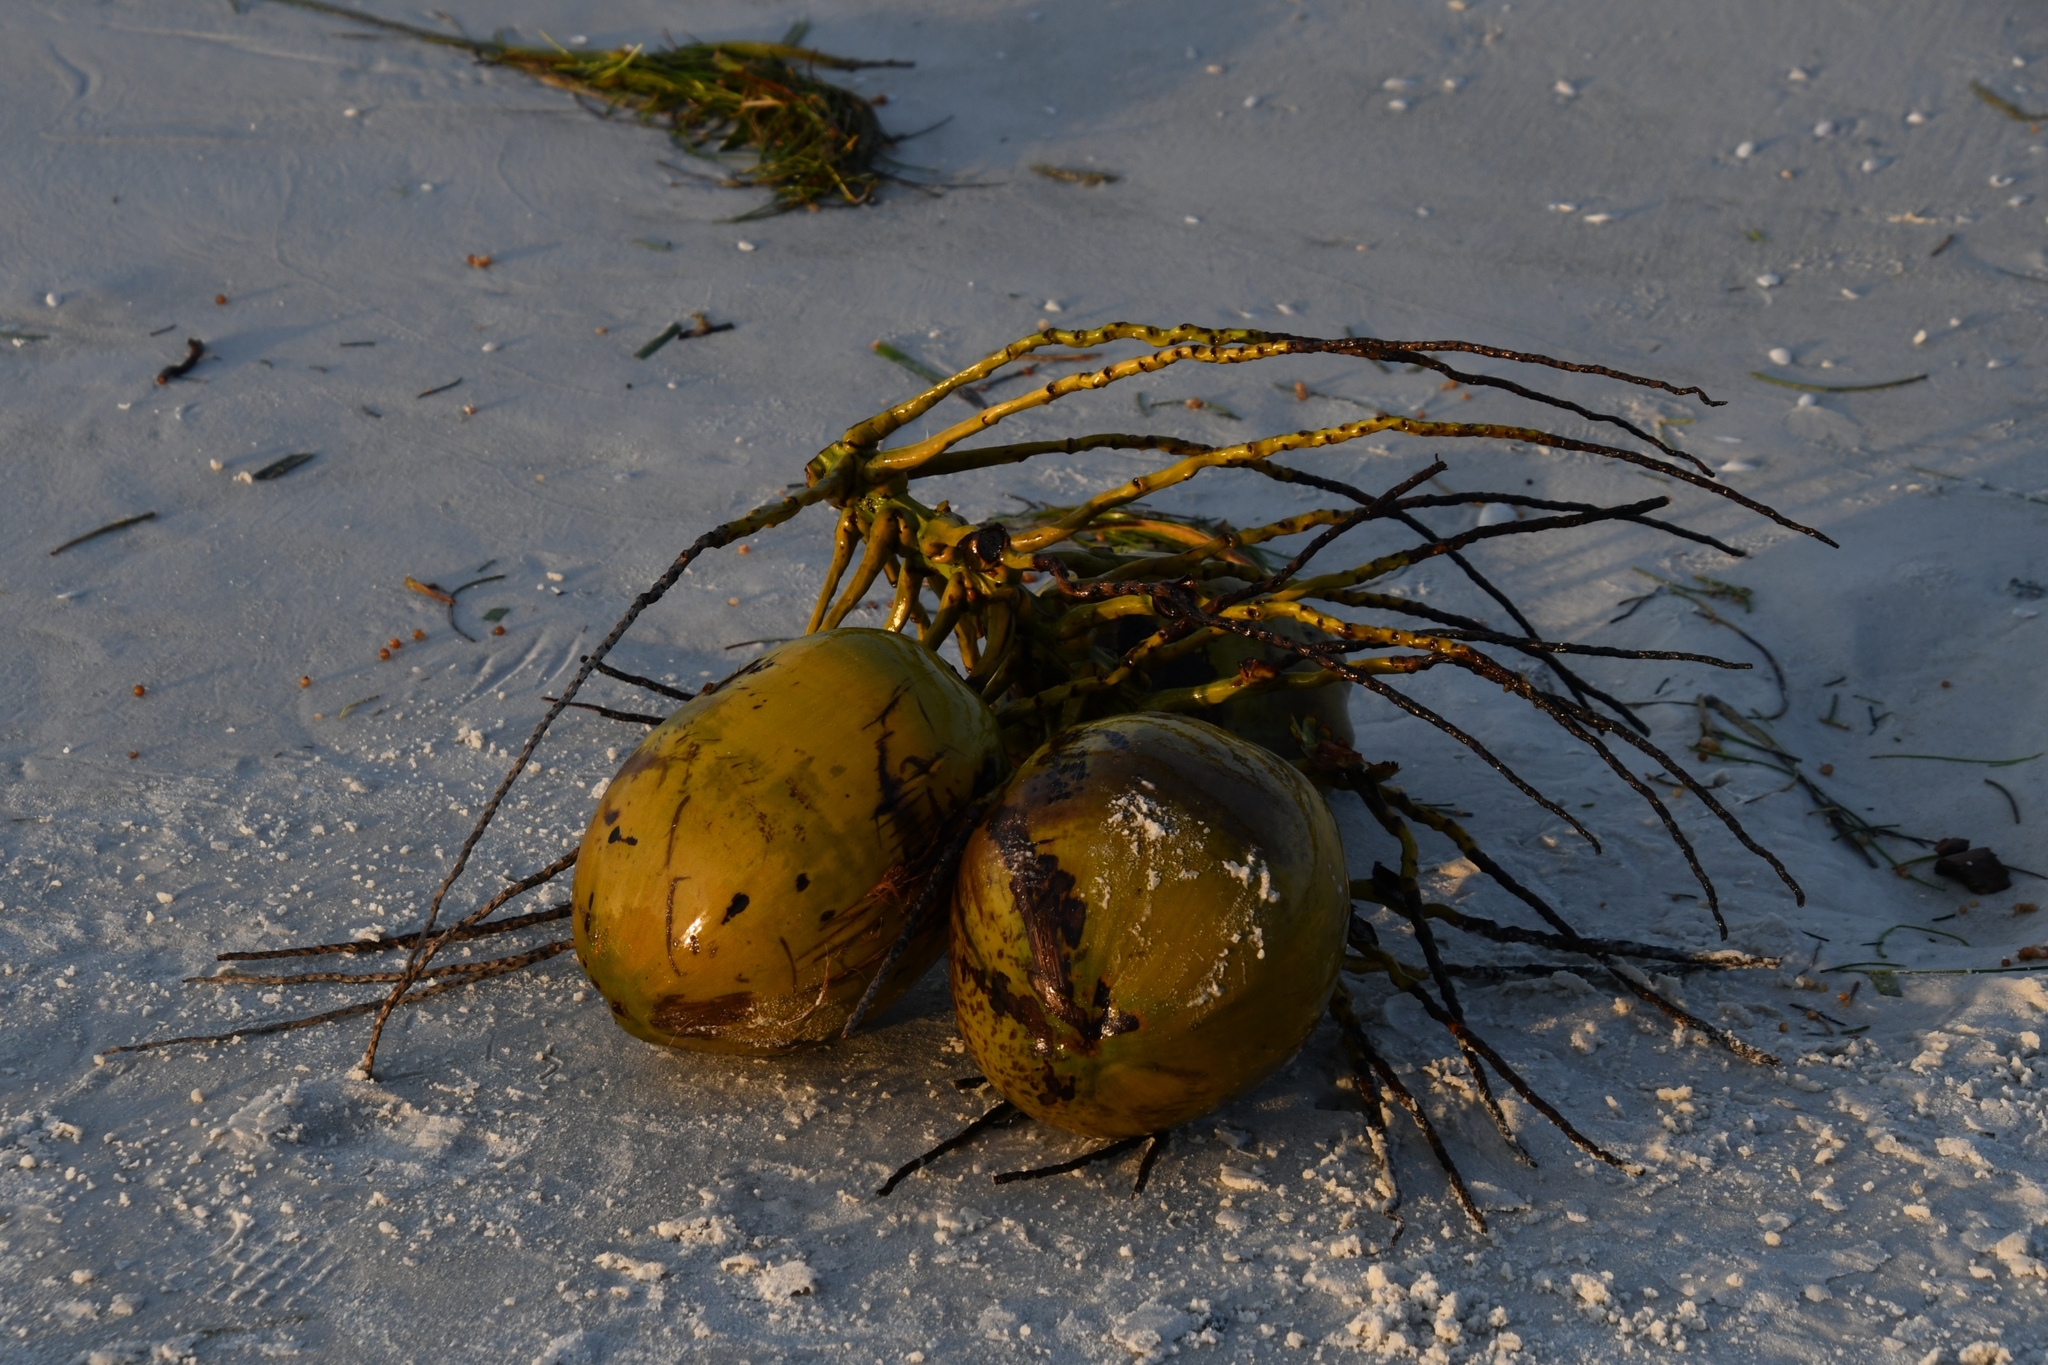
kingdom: Plantae
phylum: Tracheophyta
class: Liliopsida
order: Arecales
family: Arecaceae
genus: Cocos
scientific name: Cocos nucifera
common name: Coconut palm
